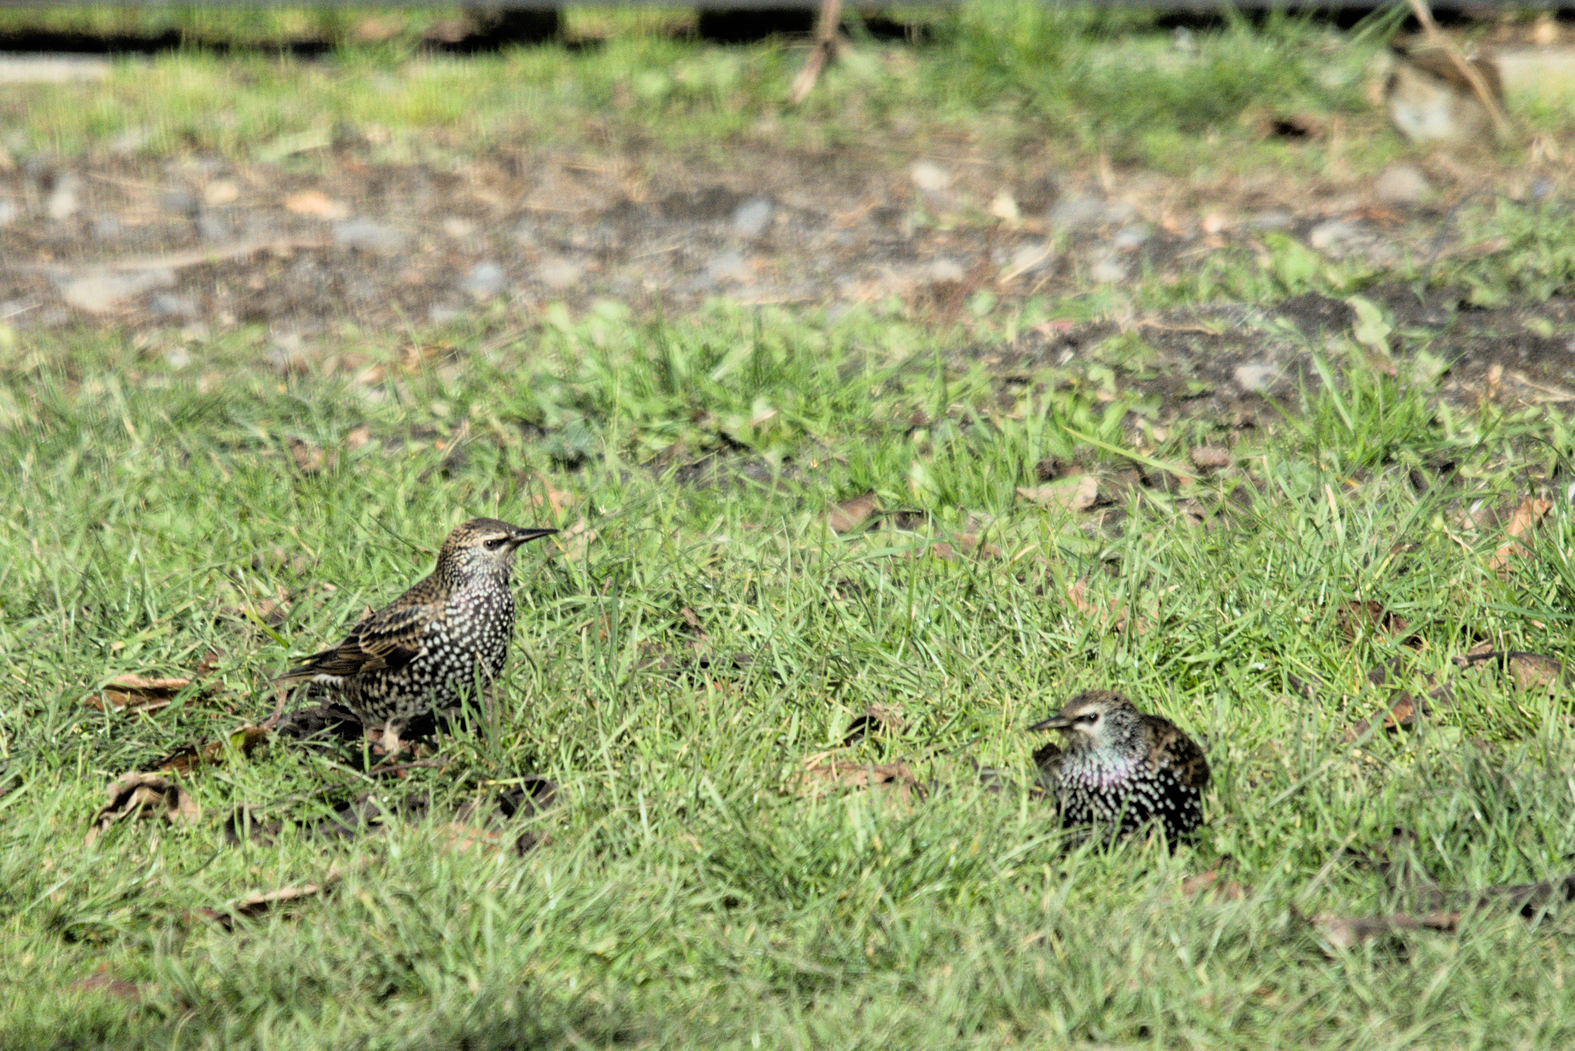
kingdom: Animalia
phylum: Chordata
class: Aves
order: Passeriformes
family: Sturnidae
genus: Sturnus
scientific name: Sturnus vulgaris
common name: Common starling
